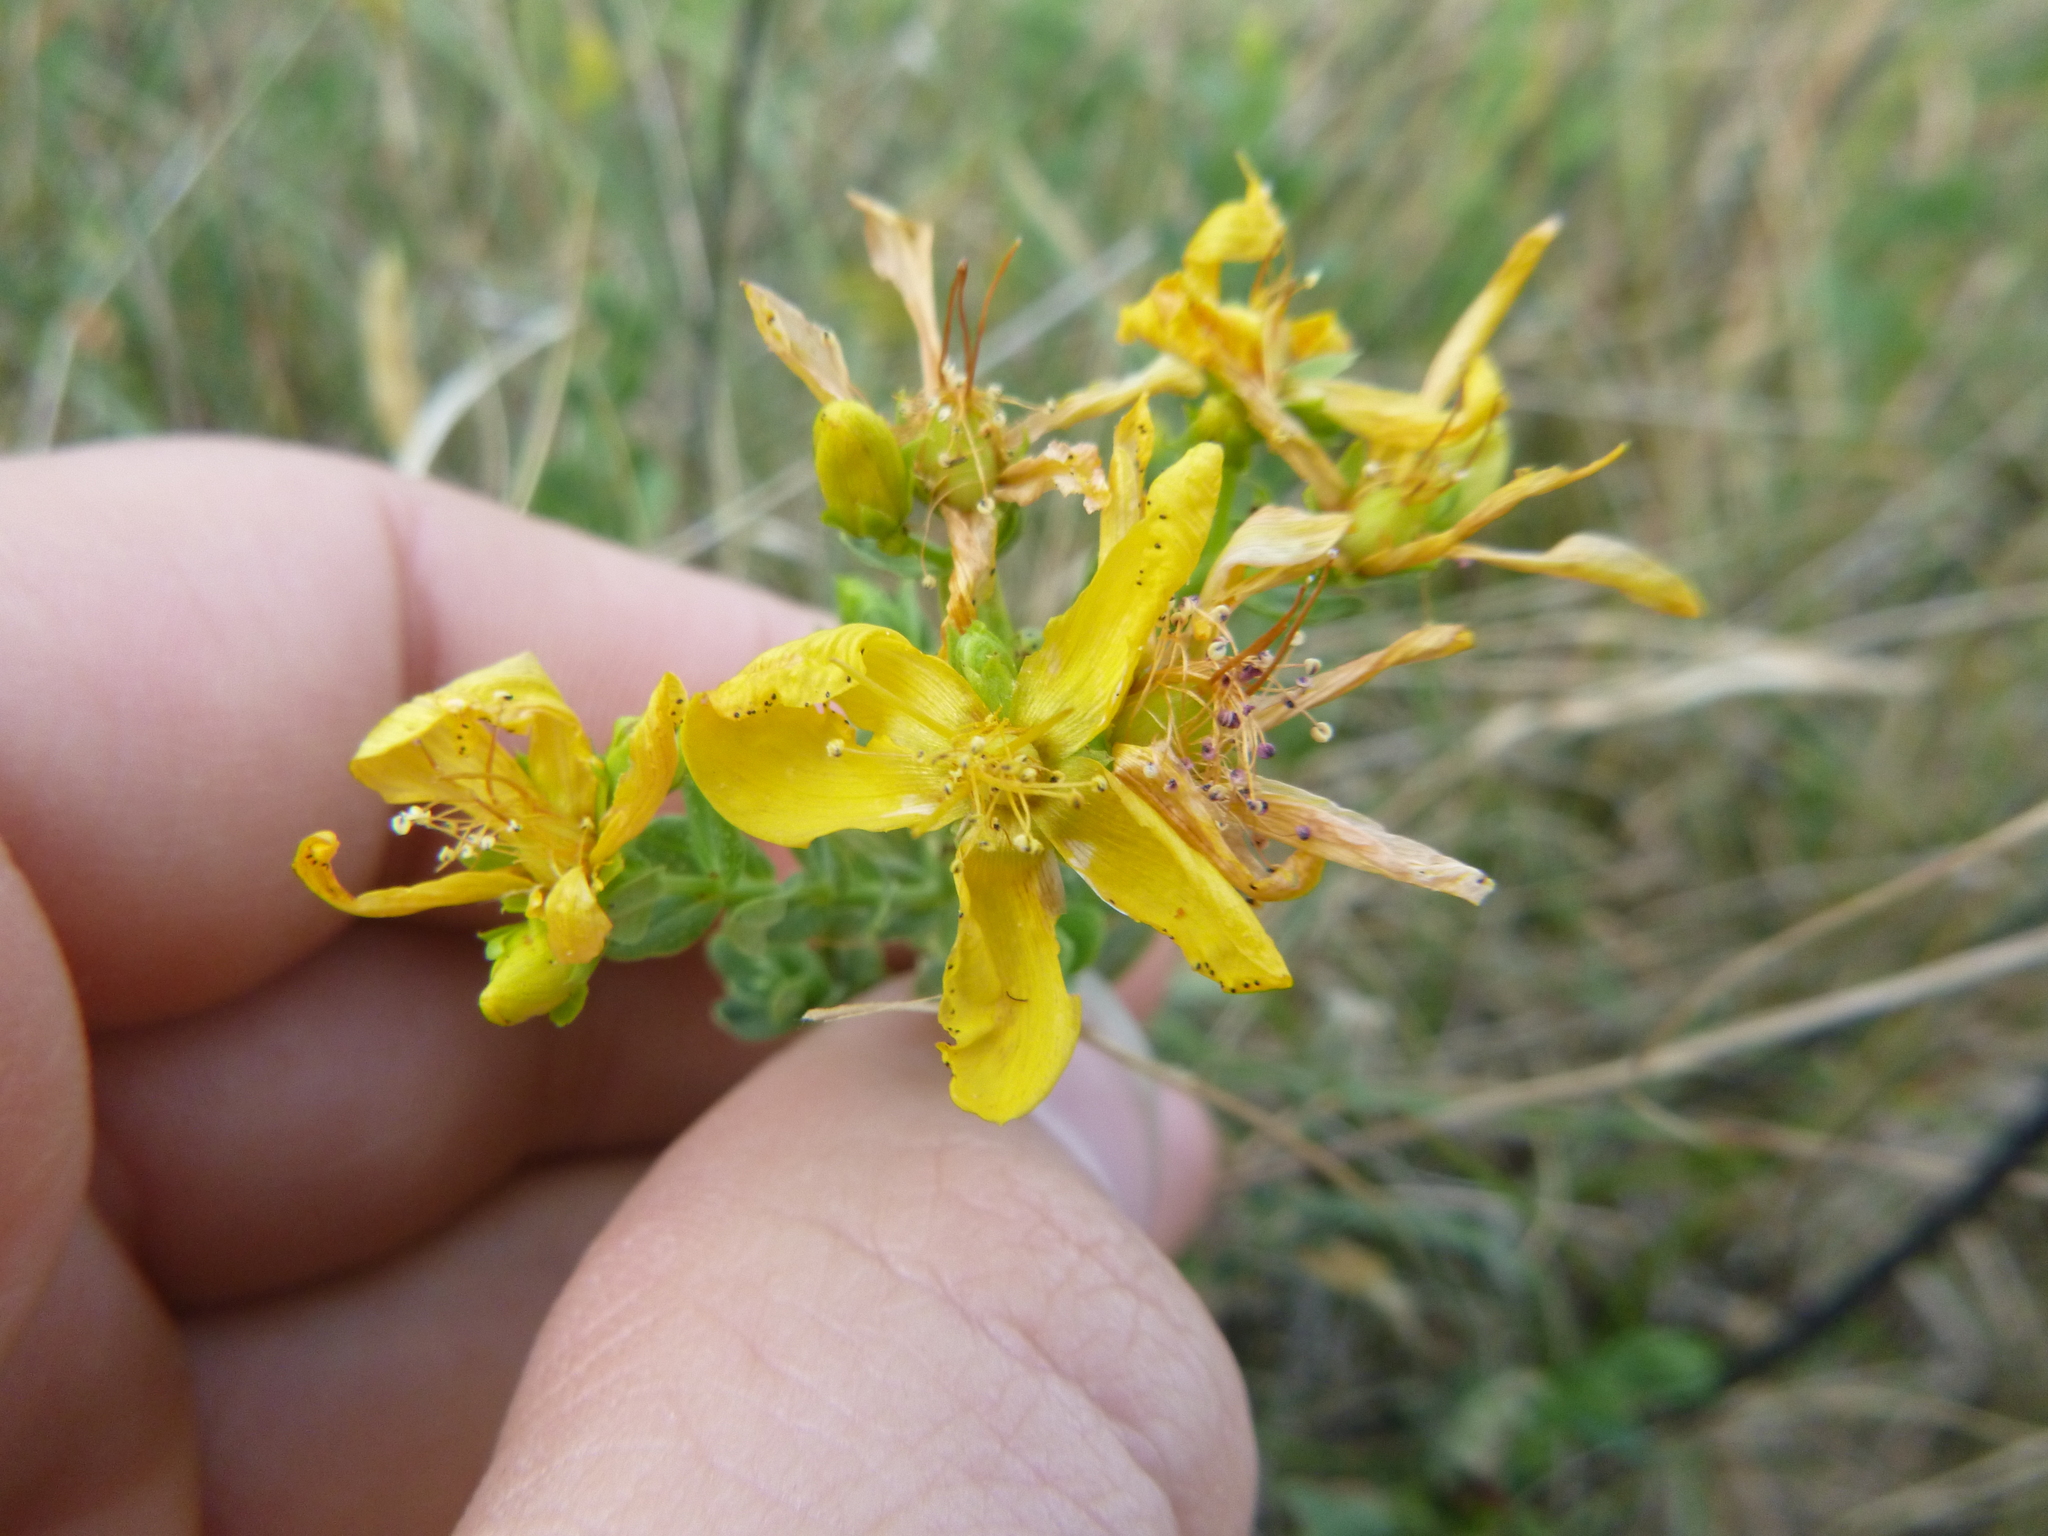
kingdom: Plantae
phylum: Tracheophyta
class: Magnoliopsida
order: Malpighiales
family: Hypericaceae
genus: Hypericum
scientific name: Hypericum perforatum
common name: Common st. johnswort
